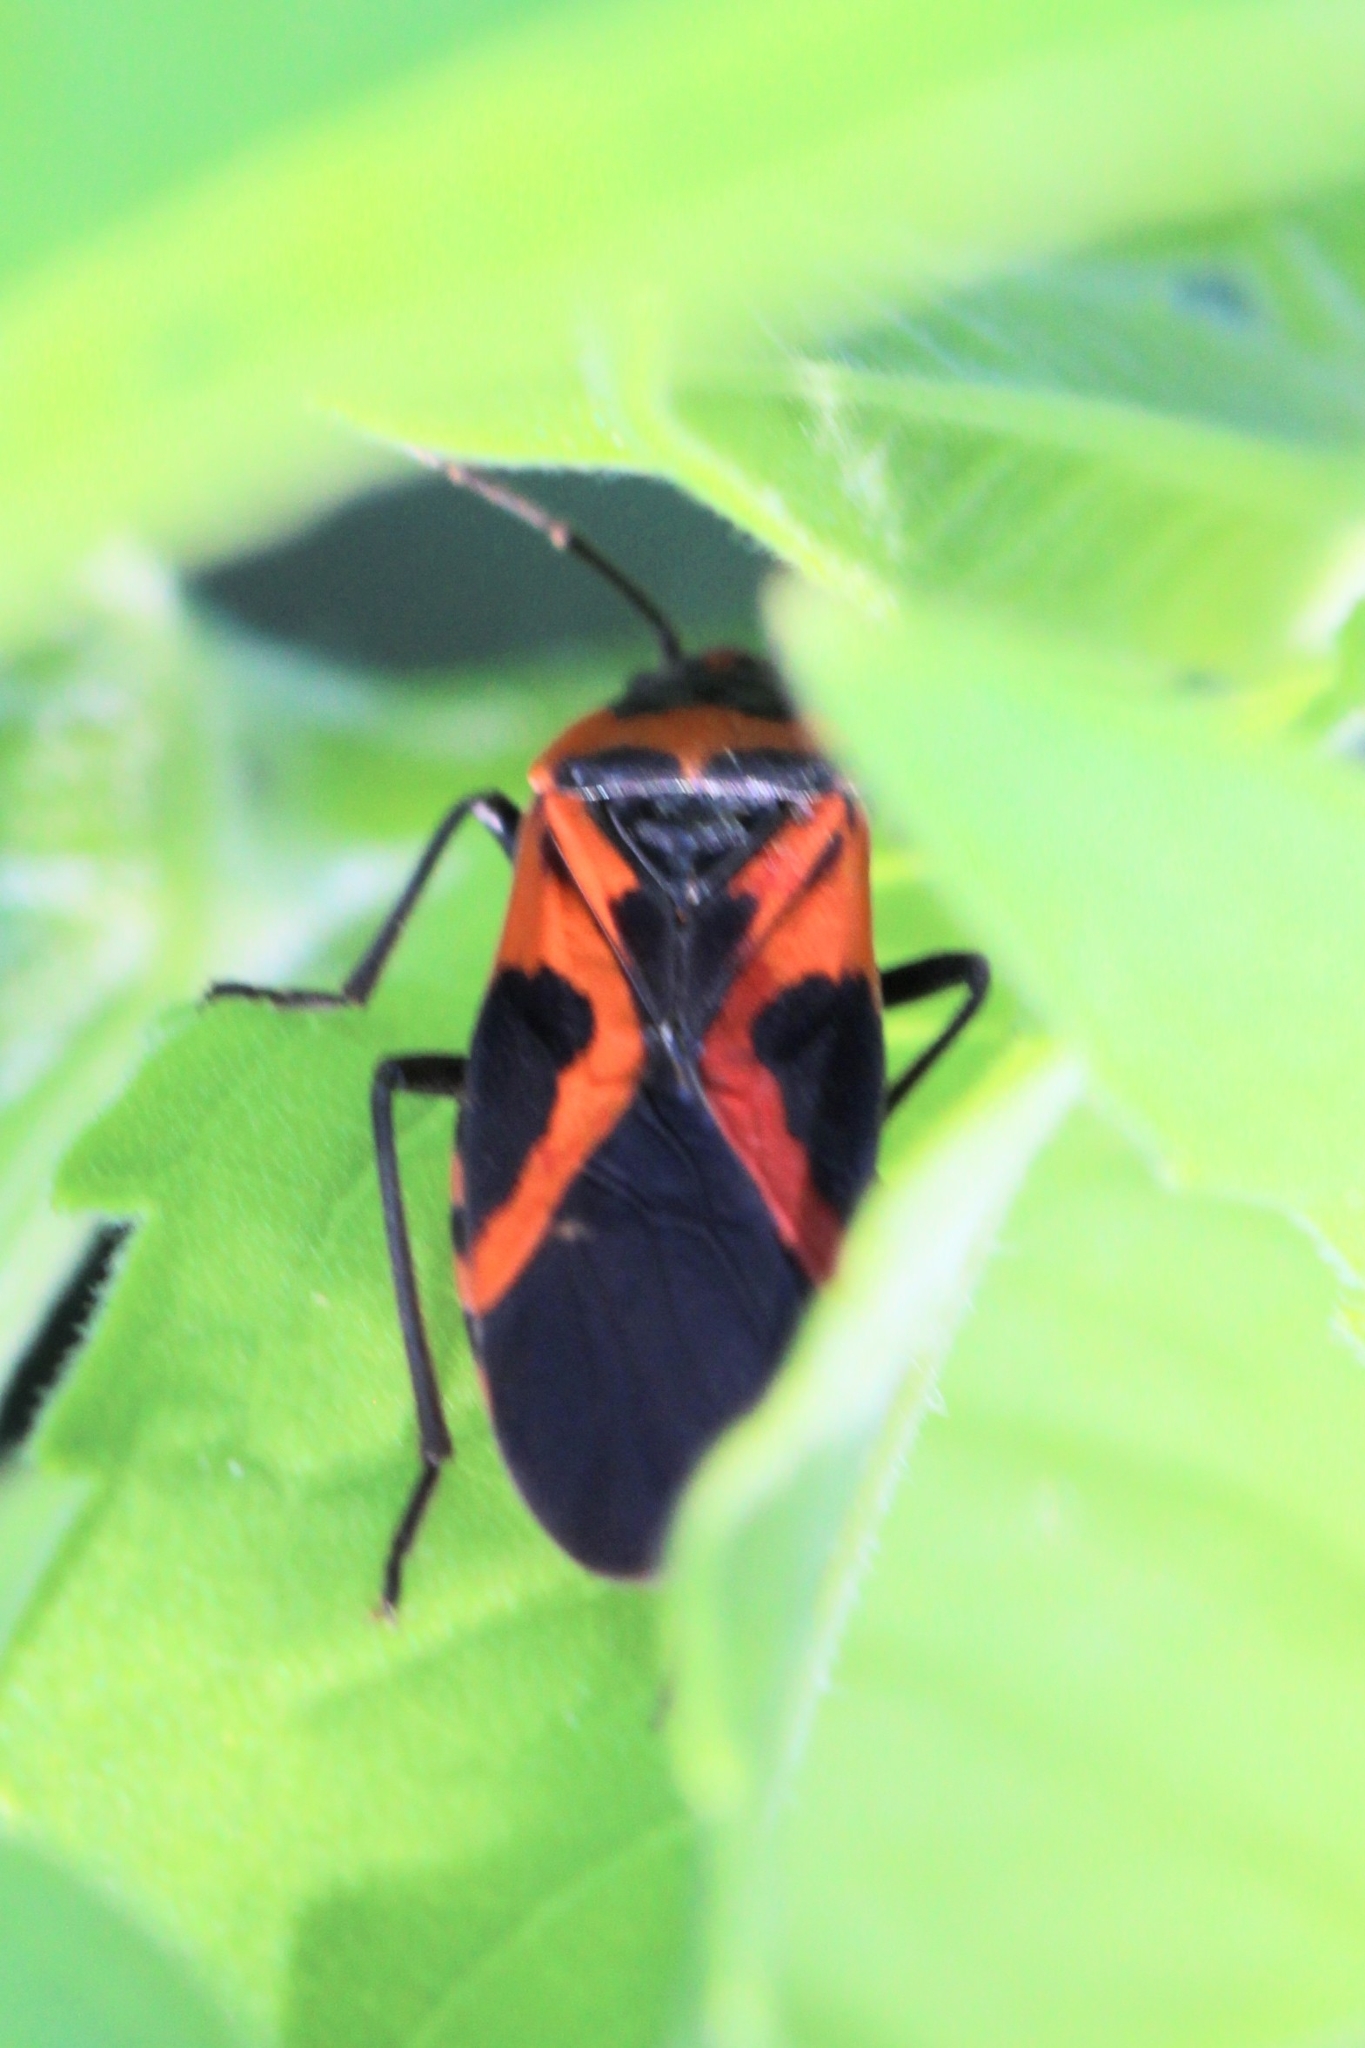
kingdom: Animalia
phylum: Arthropoda
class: Insecta
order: Hemiptera
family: Lygaeidae
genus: Lygaeus
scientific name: Lygaeus turcicus
